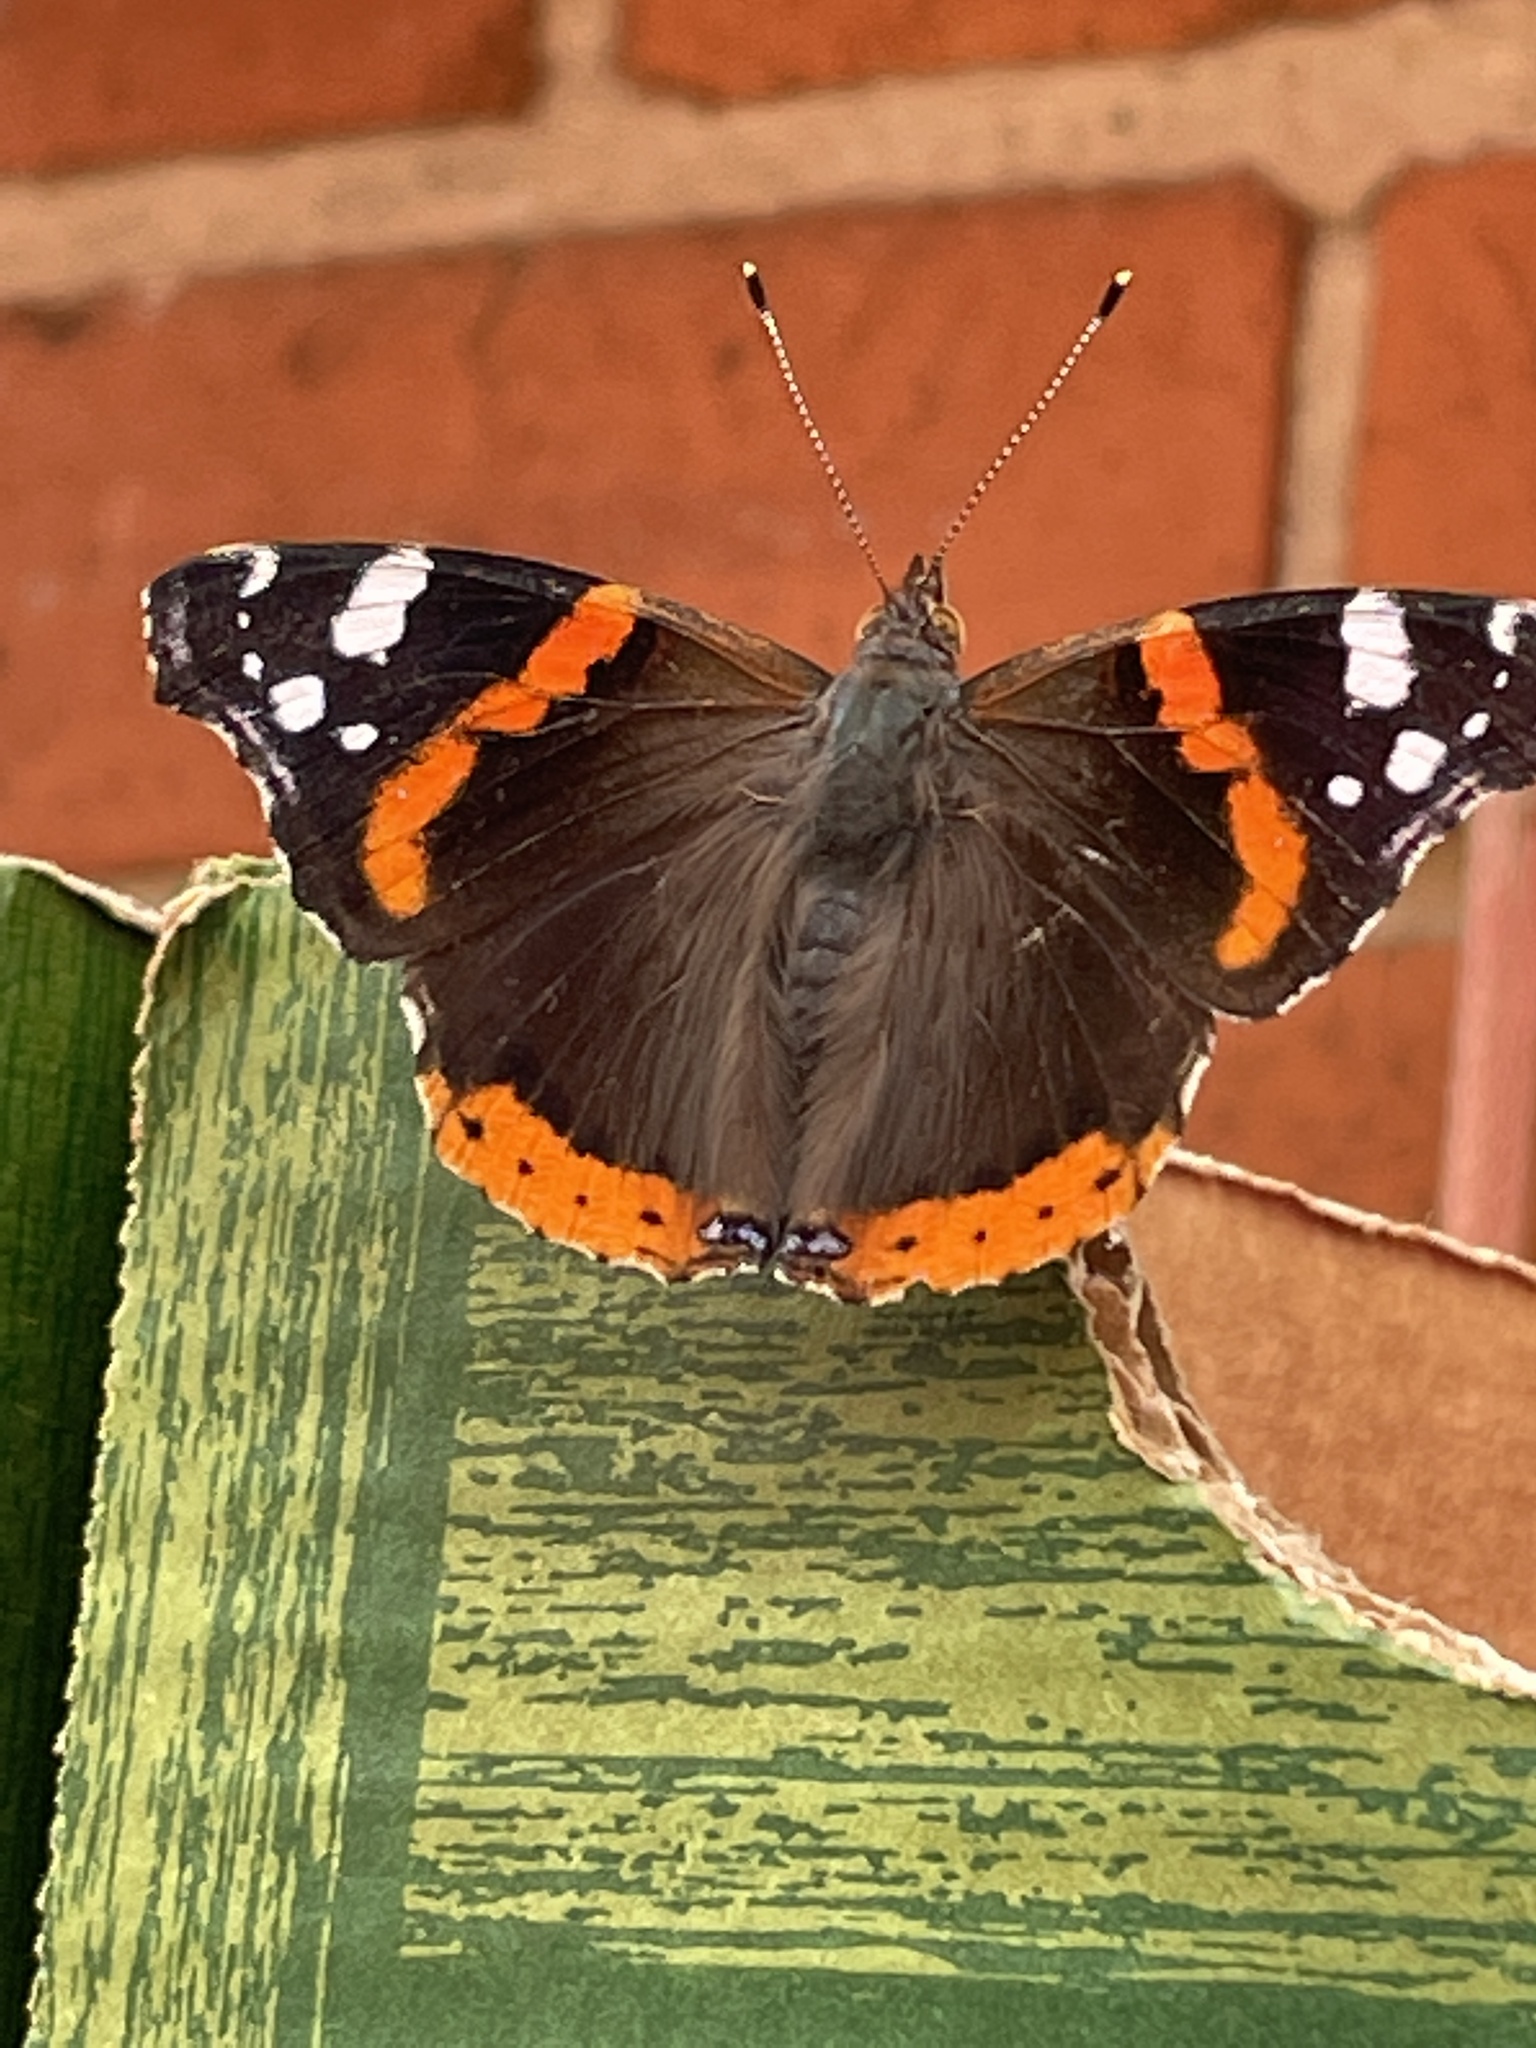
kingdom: Animalia
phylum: Arthropoda
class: Insecta
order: Lepidoptera
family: Nymphalidae
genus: Vanessa
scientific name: Vanessa atalanta
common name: Red admiral
